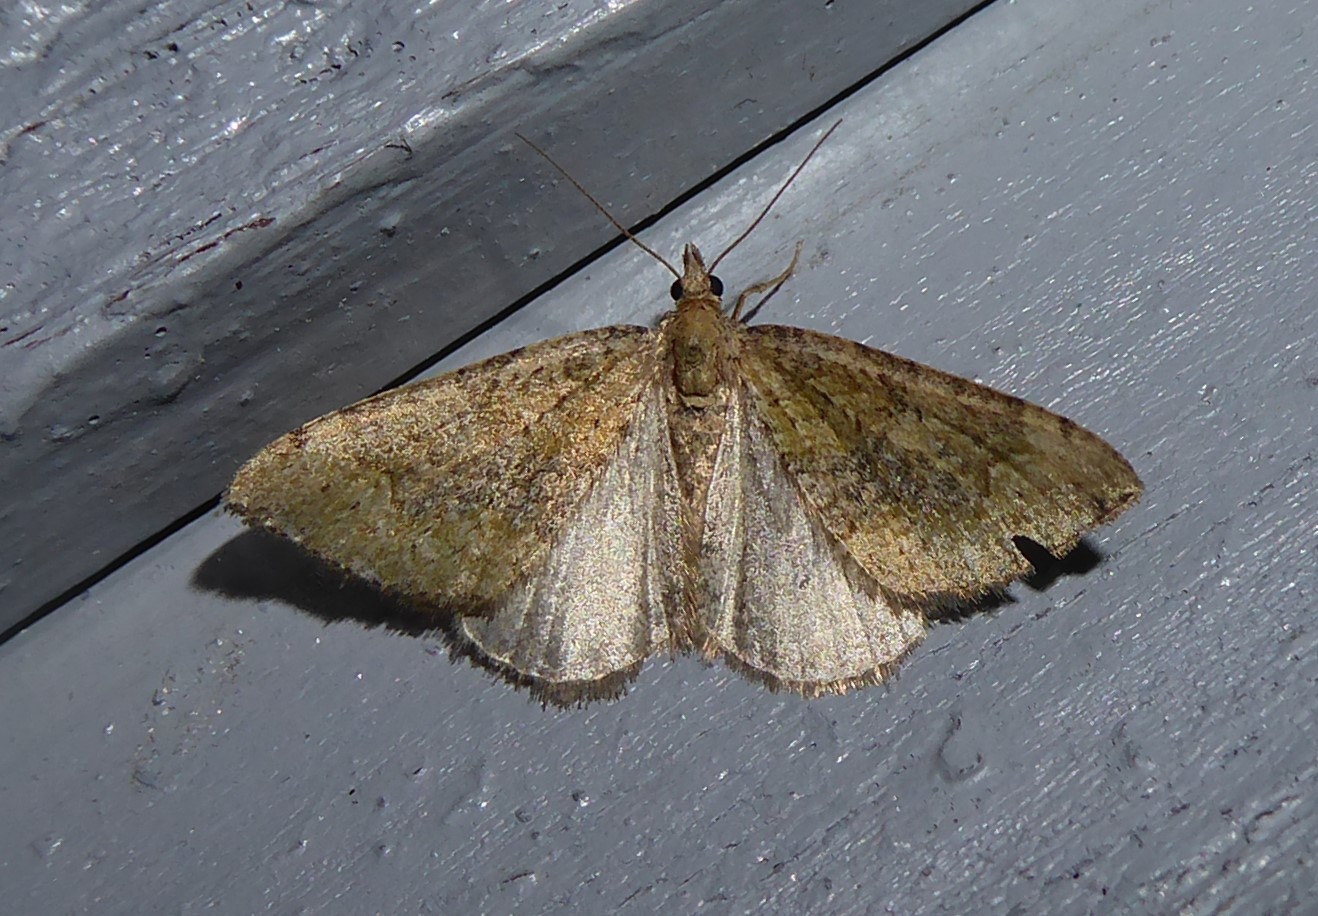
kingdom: Animalia
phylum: Arthropoda
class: Insecta
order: Lepidoptera
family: Geometridae
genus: Epyaxa
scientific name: Epyaxa rosearia
